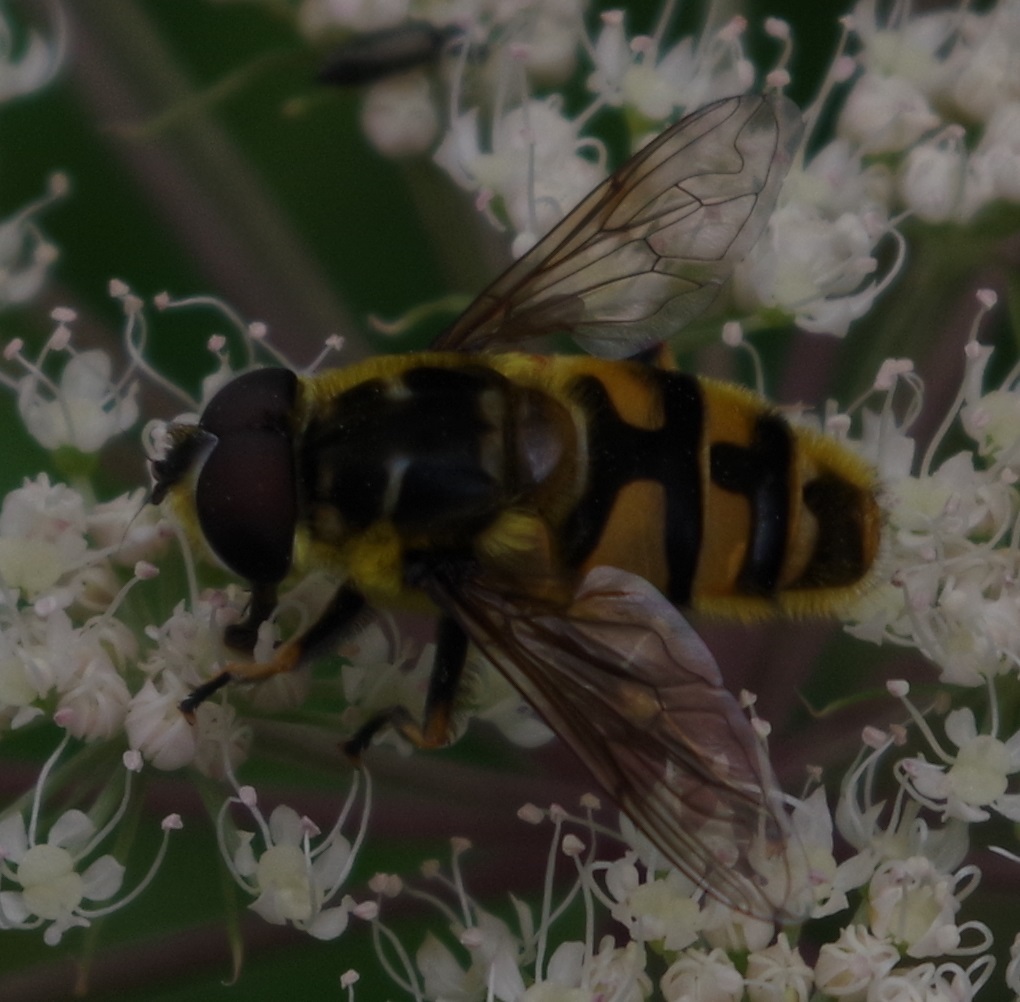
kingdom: Animalia
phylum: Arthropoda
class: Insecta
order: Diptera
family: Syrphidae
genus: Myathropa
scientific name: Myathropa florea
